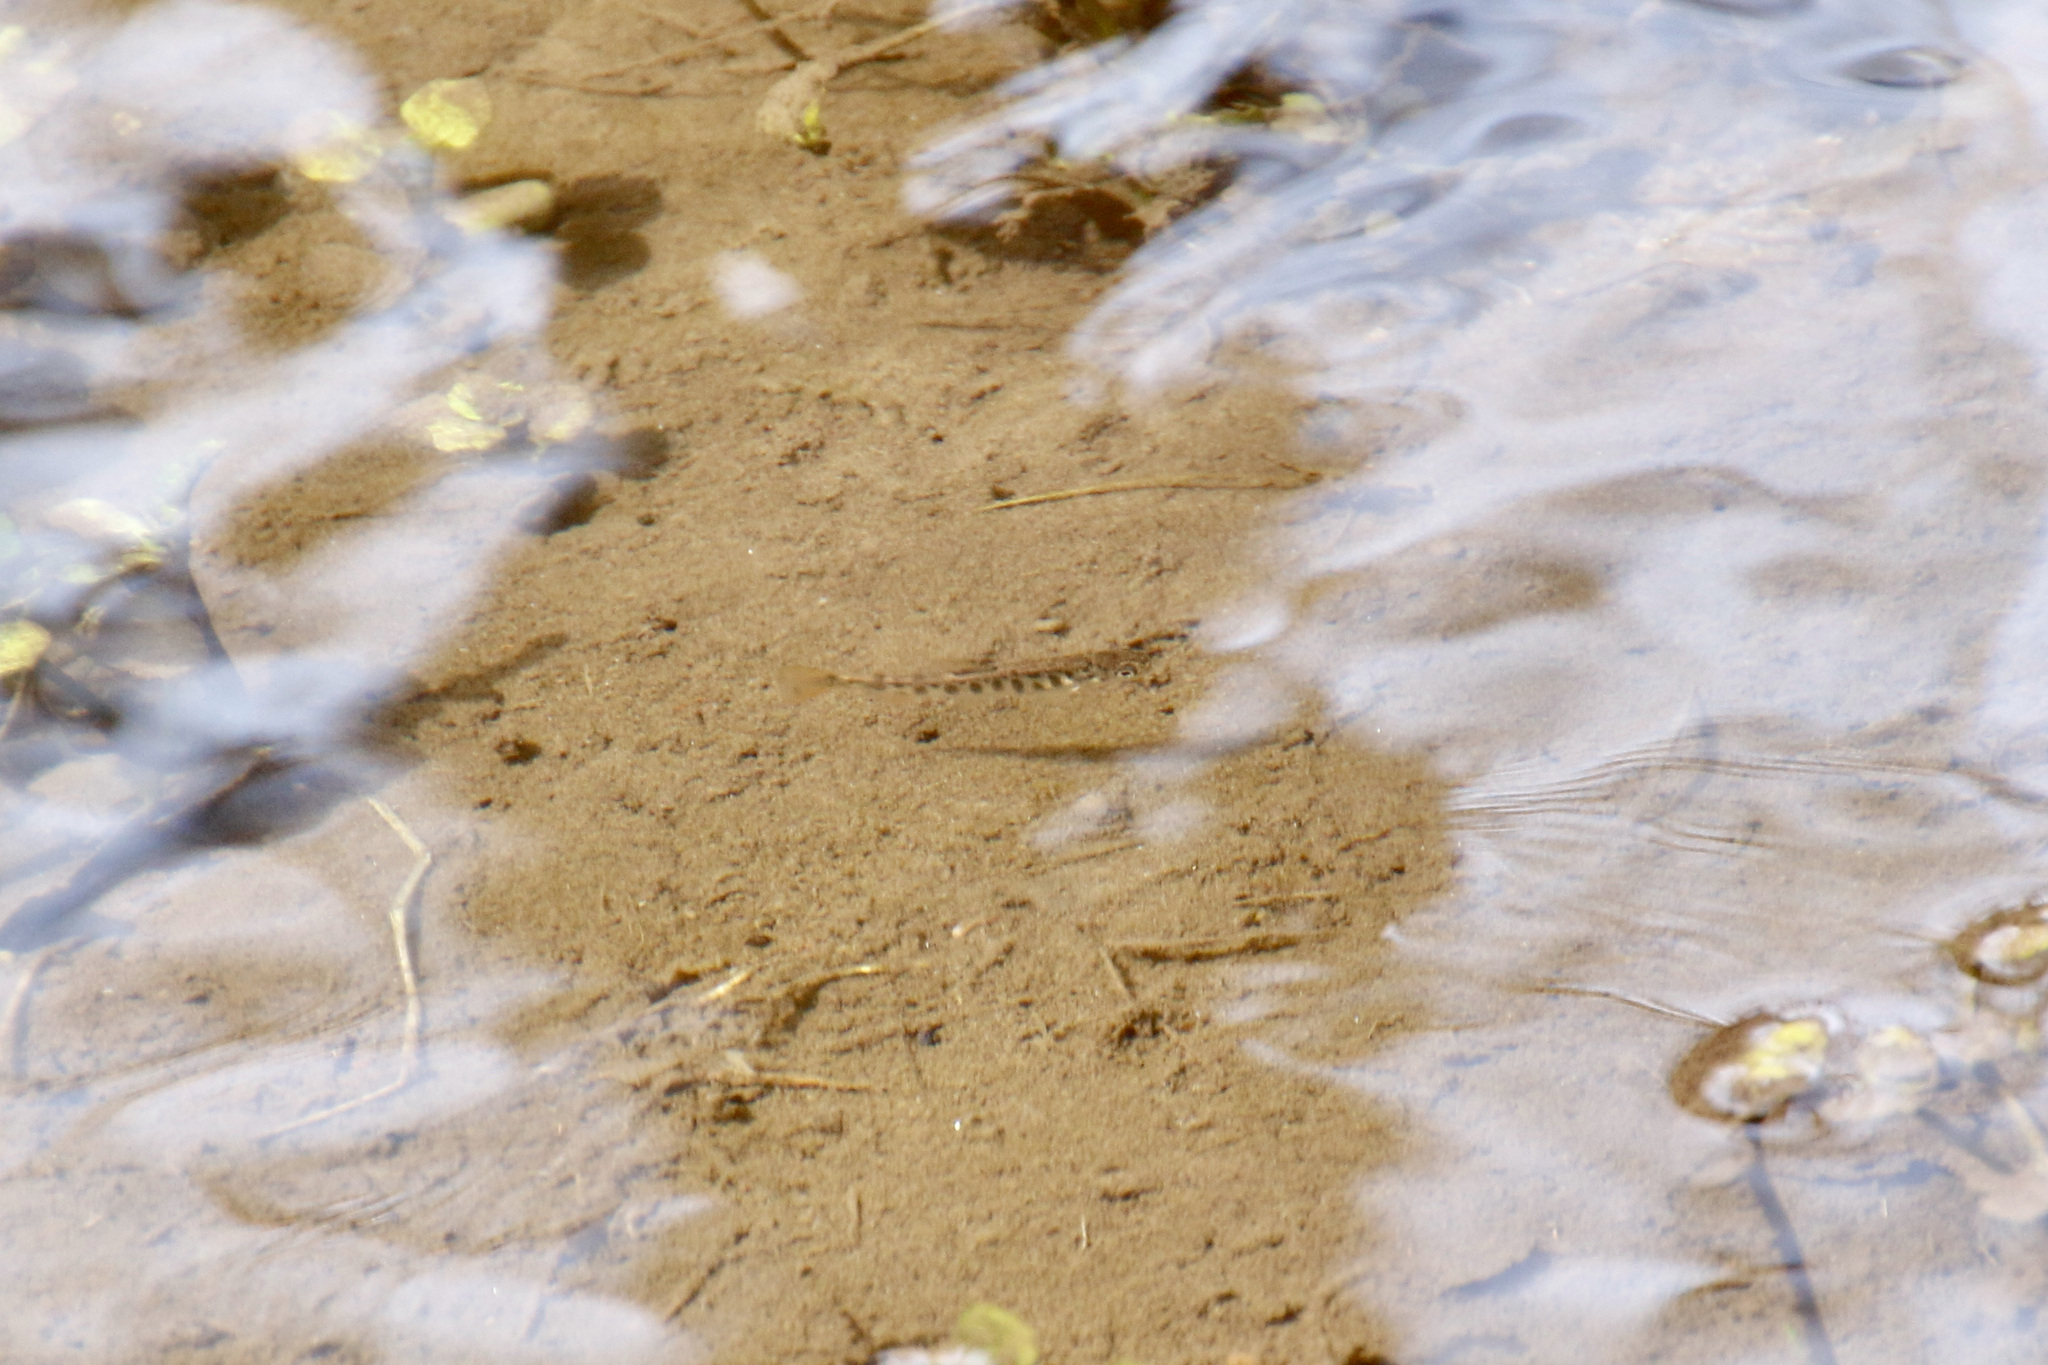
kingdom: Animalia
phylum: Chordata
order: Salmoniformes
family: Salmonidae
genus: Salvelinus
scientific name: Salvelinus fontinalis
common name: Brook trout
